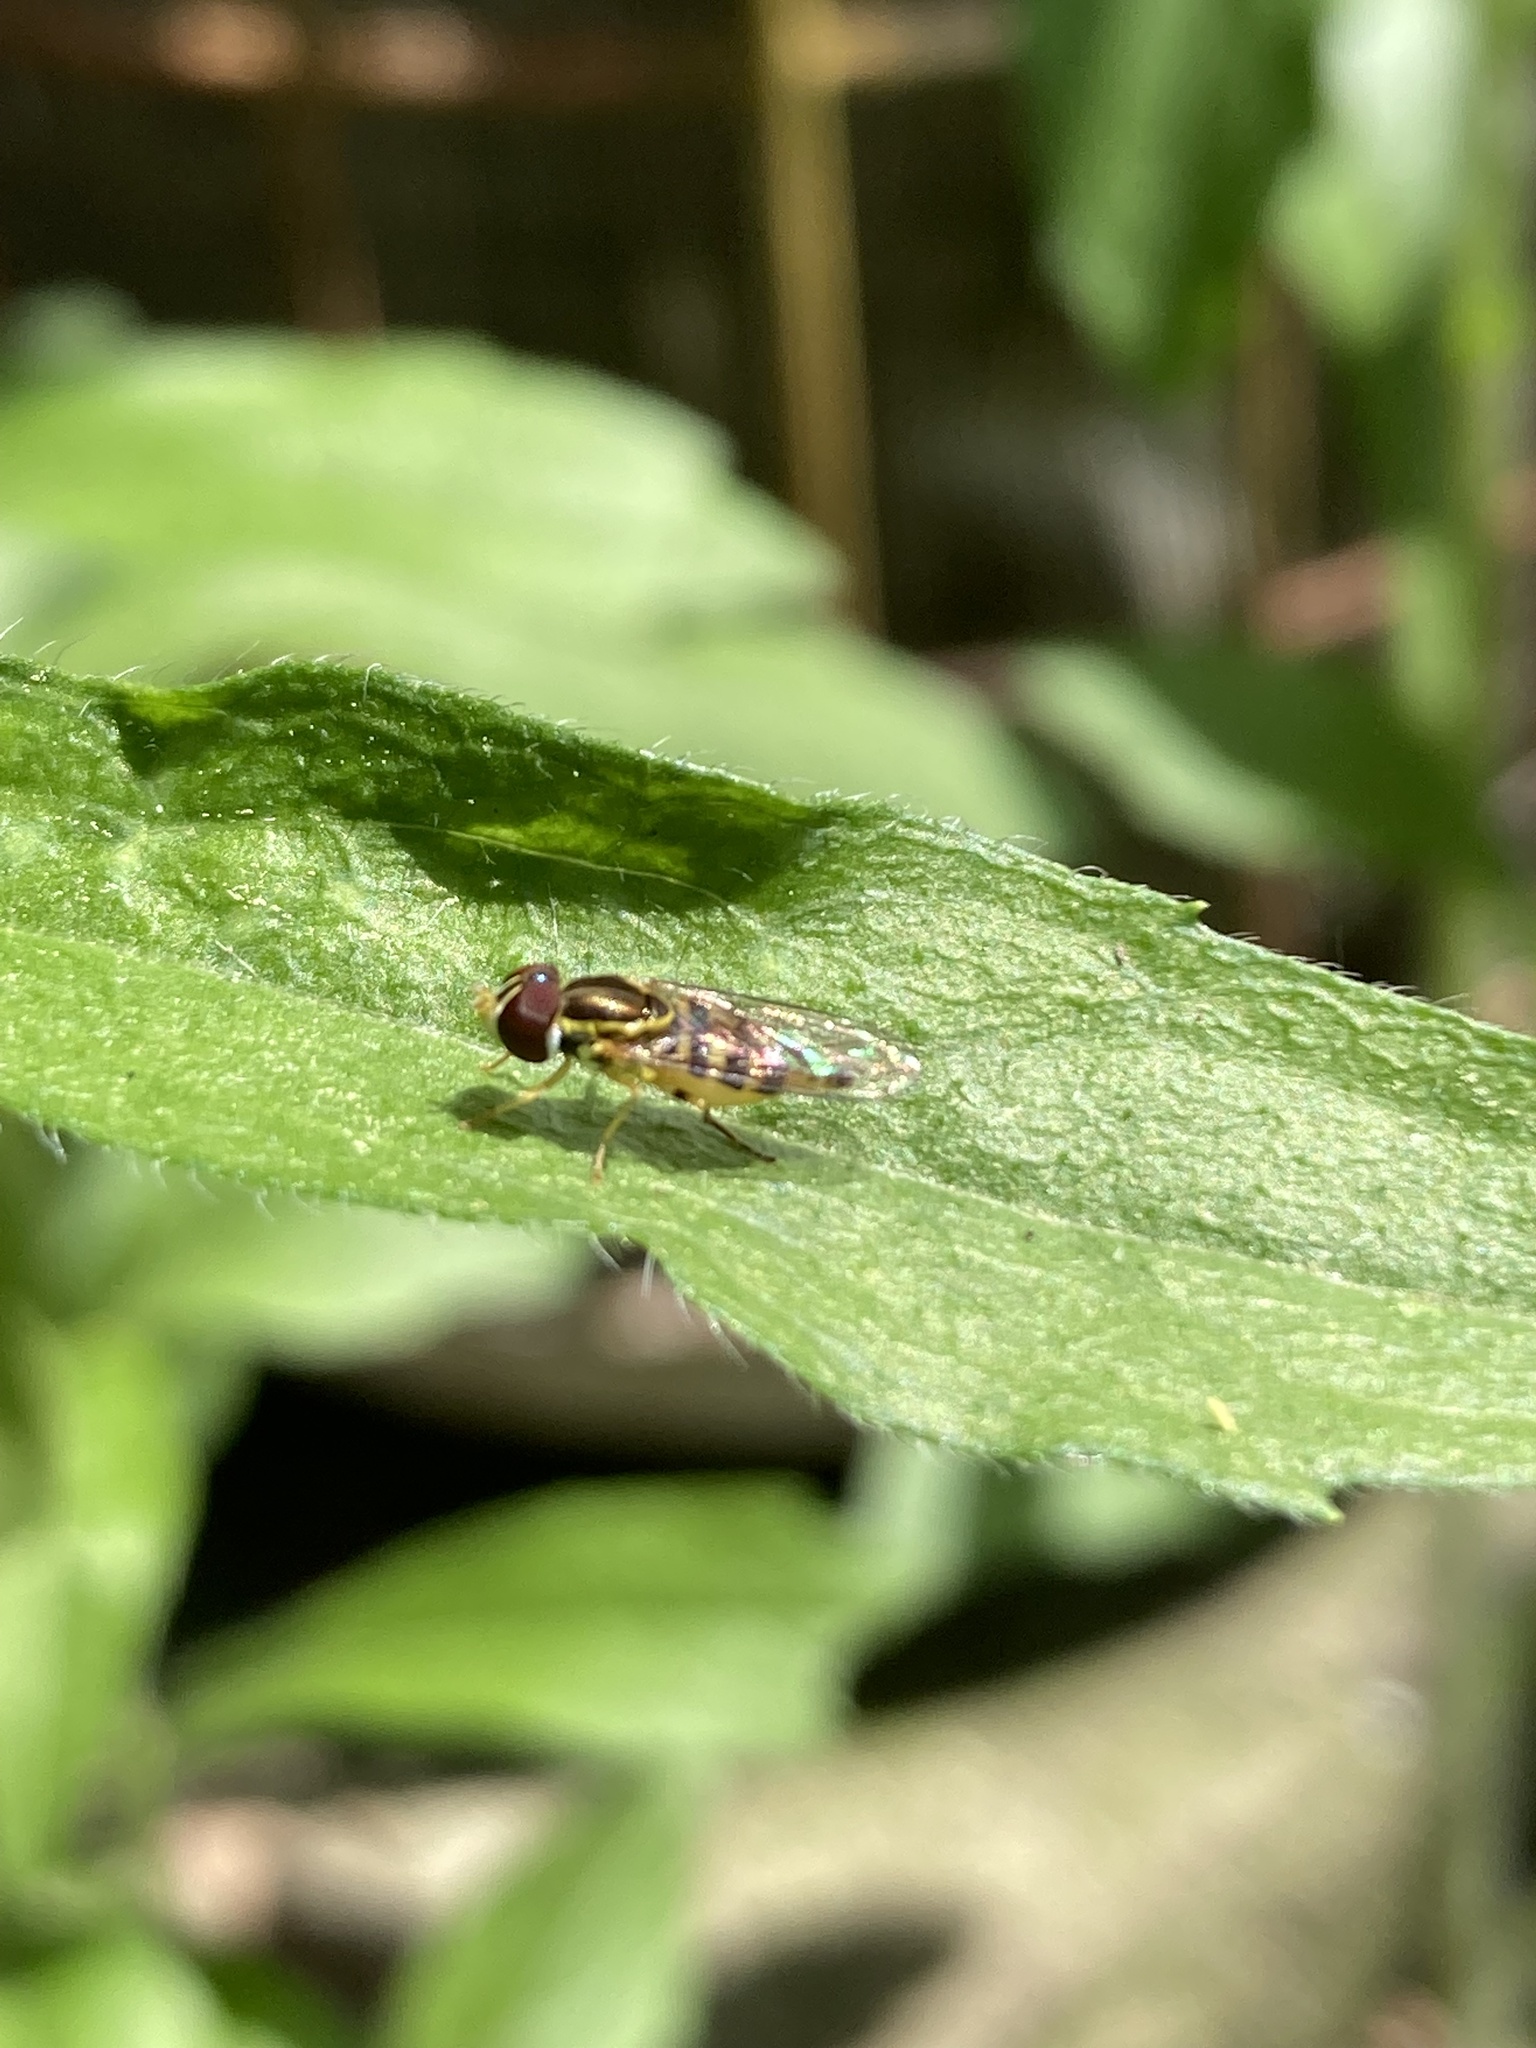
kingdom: Animalia
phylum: Arthropoda
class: Insecta
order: Diptera
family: Syrphidae
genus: Toxomerus
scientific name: Toxomerus geminatus
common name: Eastern calligrapher
